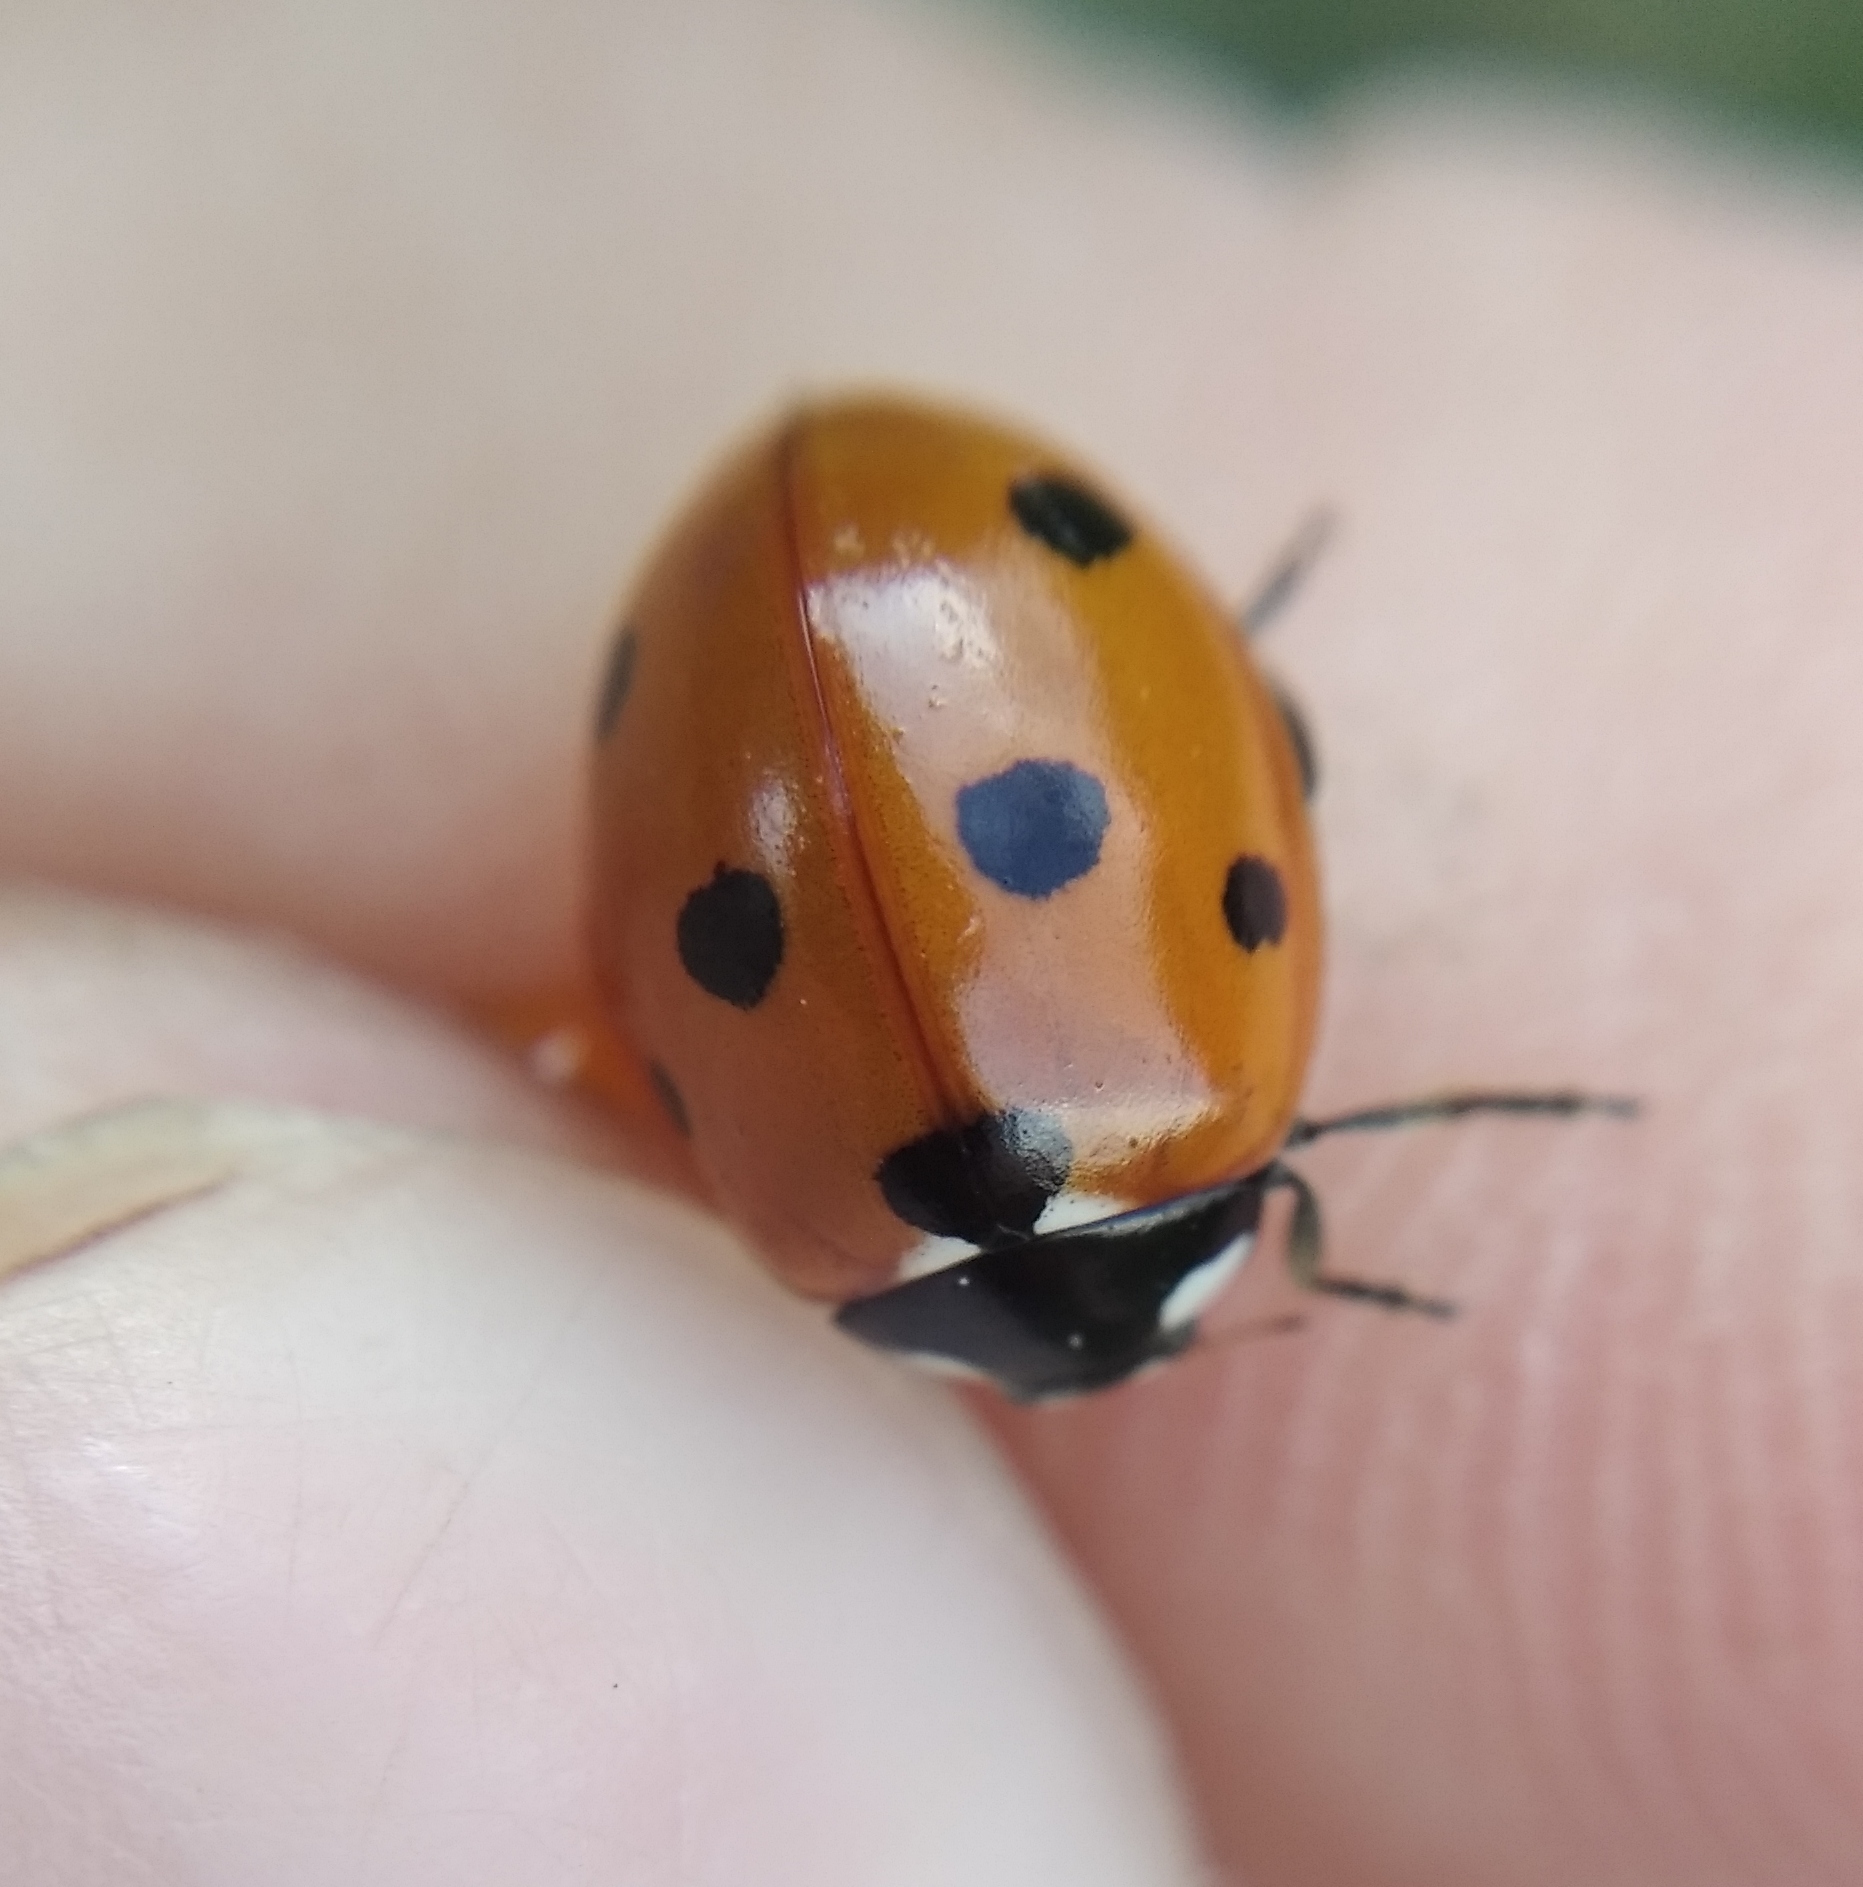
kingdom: Animalia
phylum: Arthropoda
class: Insecta
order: Coleoptera
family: Coccinellidae
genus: Coccinella
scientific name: Coccinella septempunctata
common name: Sevenspotted lady beetle
